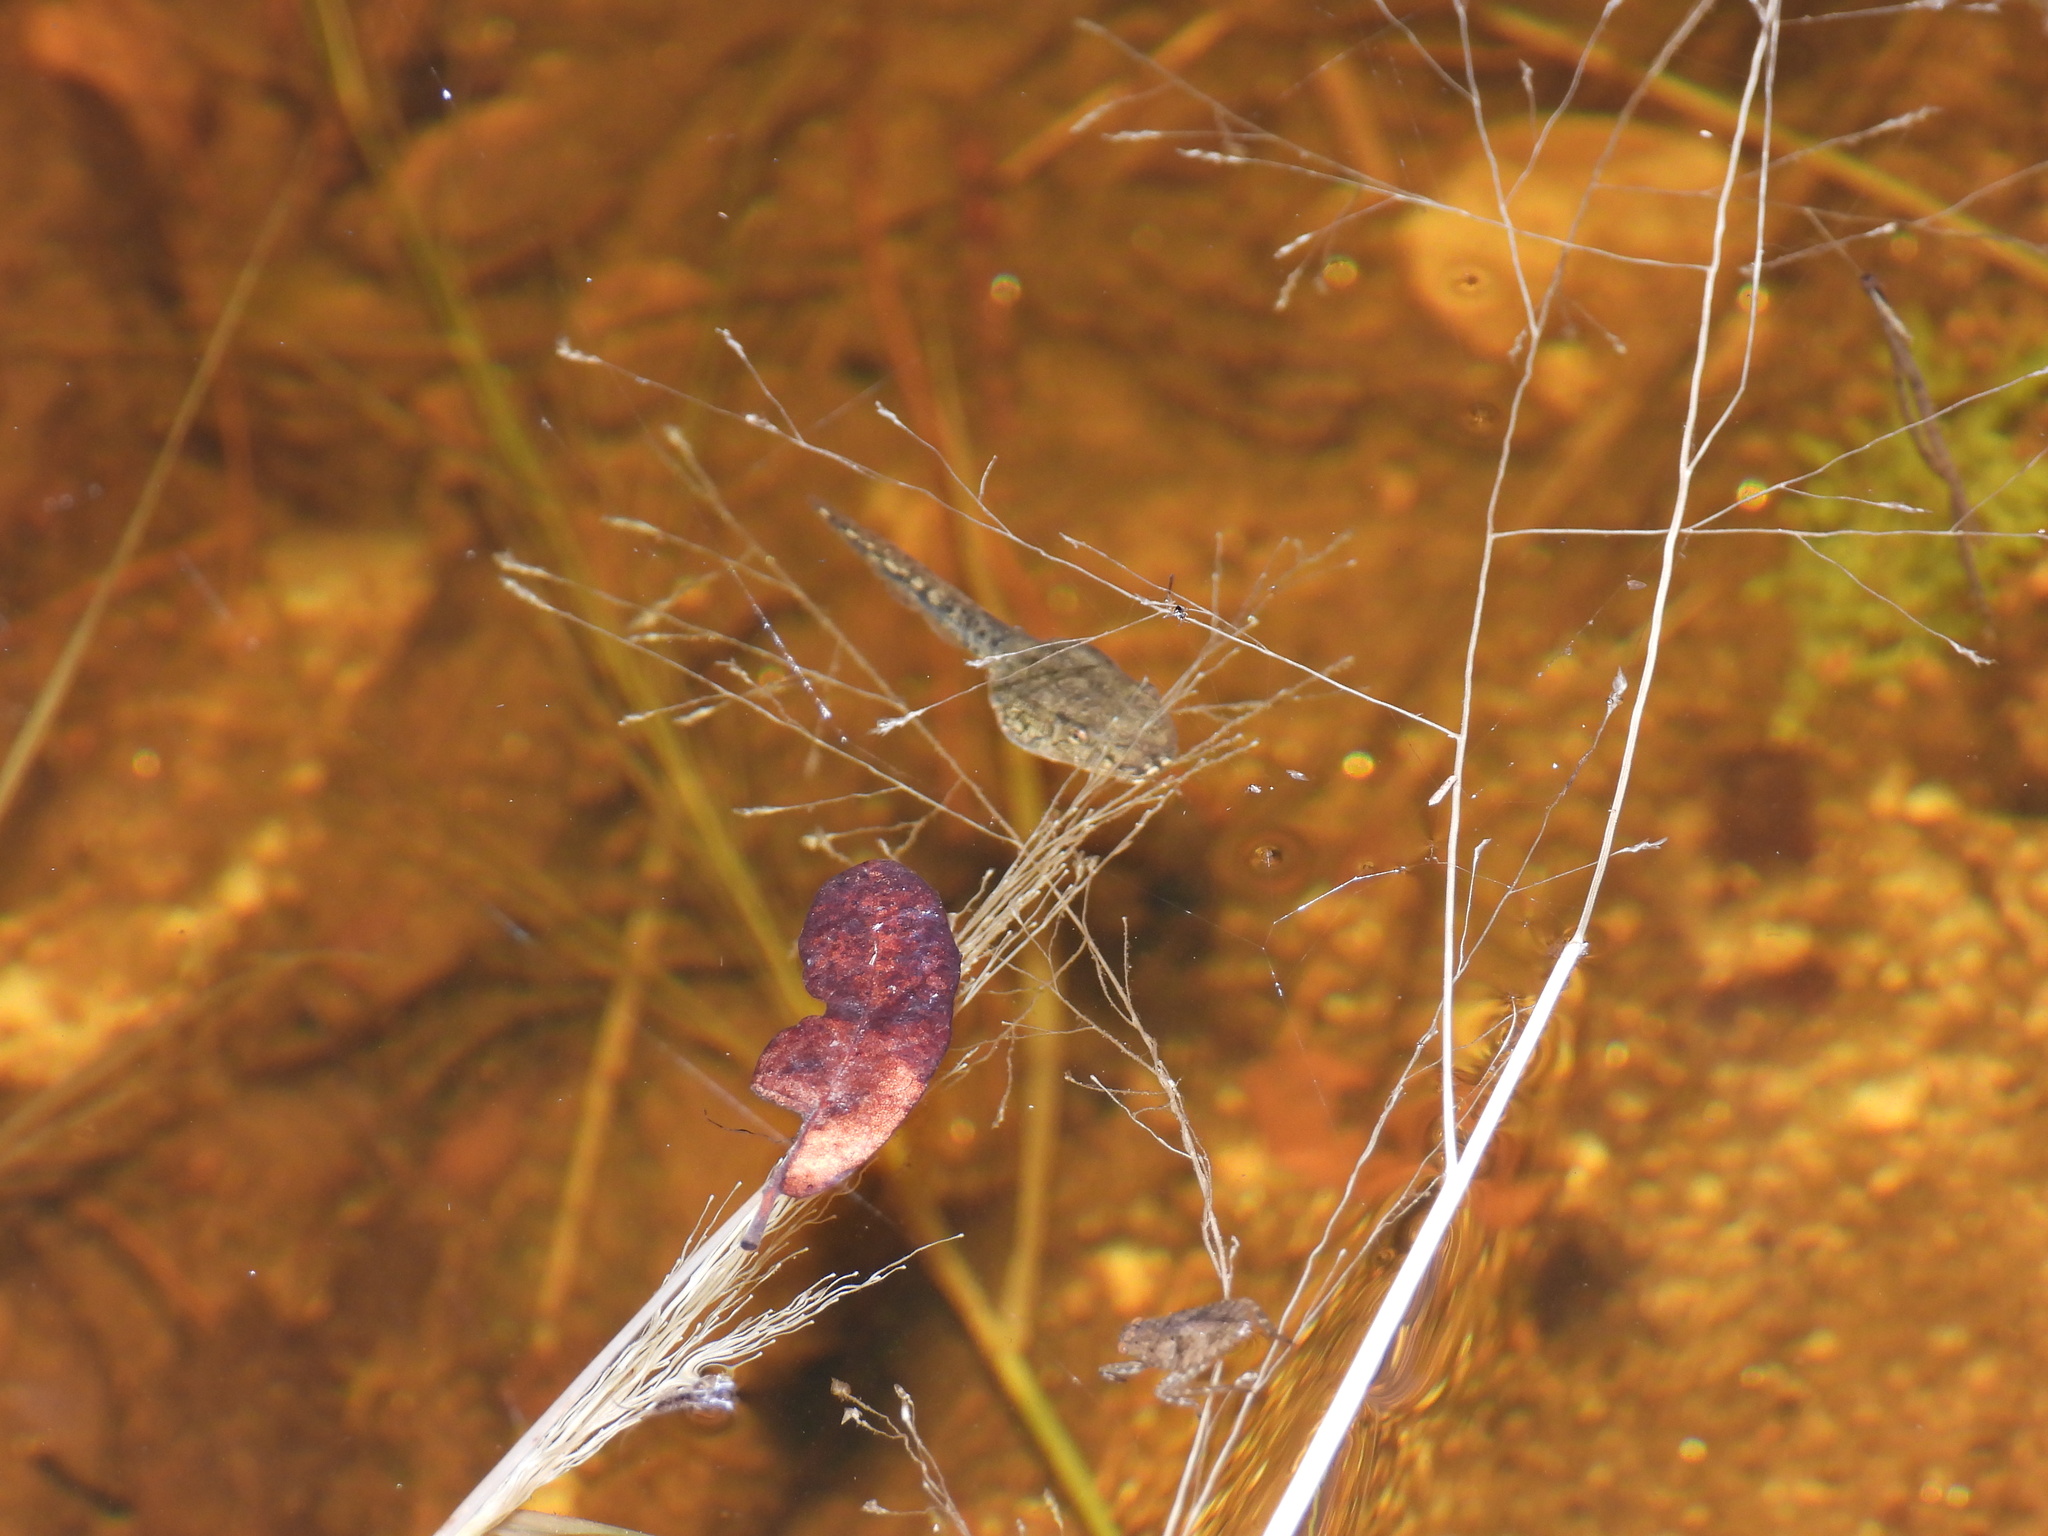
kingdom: Animalia
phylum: Chordata
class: Amphibia
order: Anura
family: Hylidae
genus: Dryophytes
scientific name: Dryophytes arenicolor
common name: Canyon treefrog
